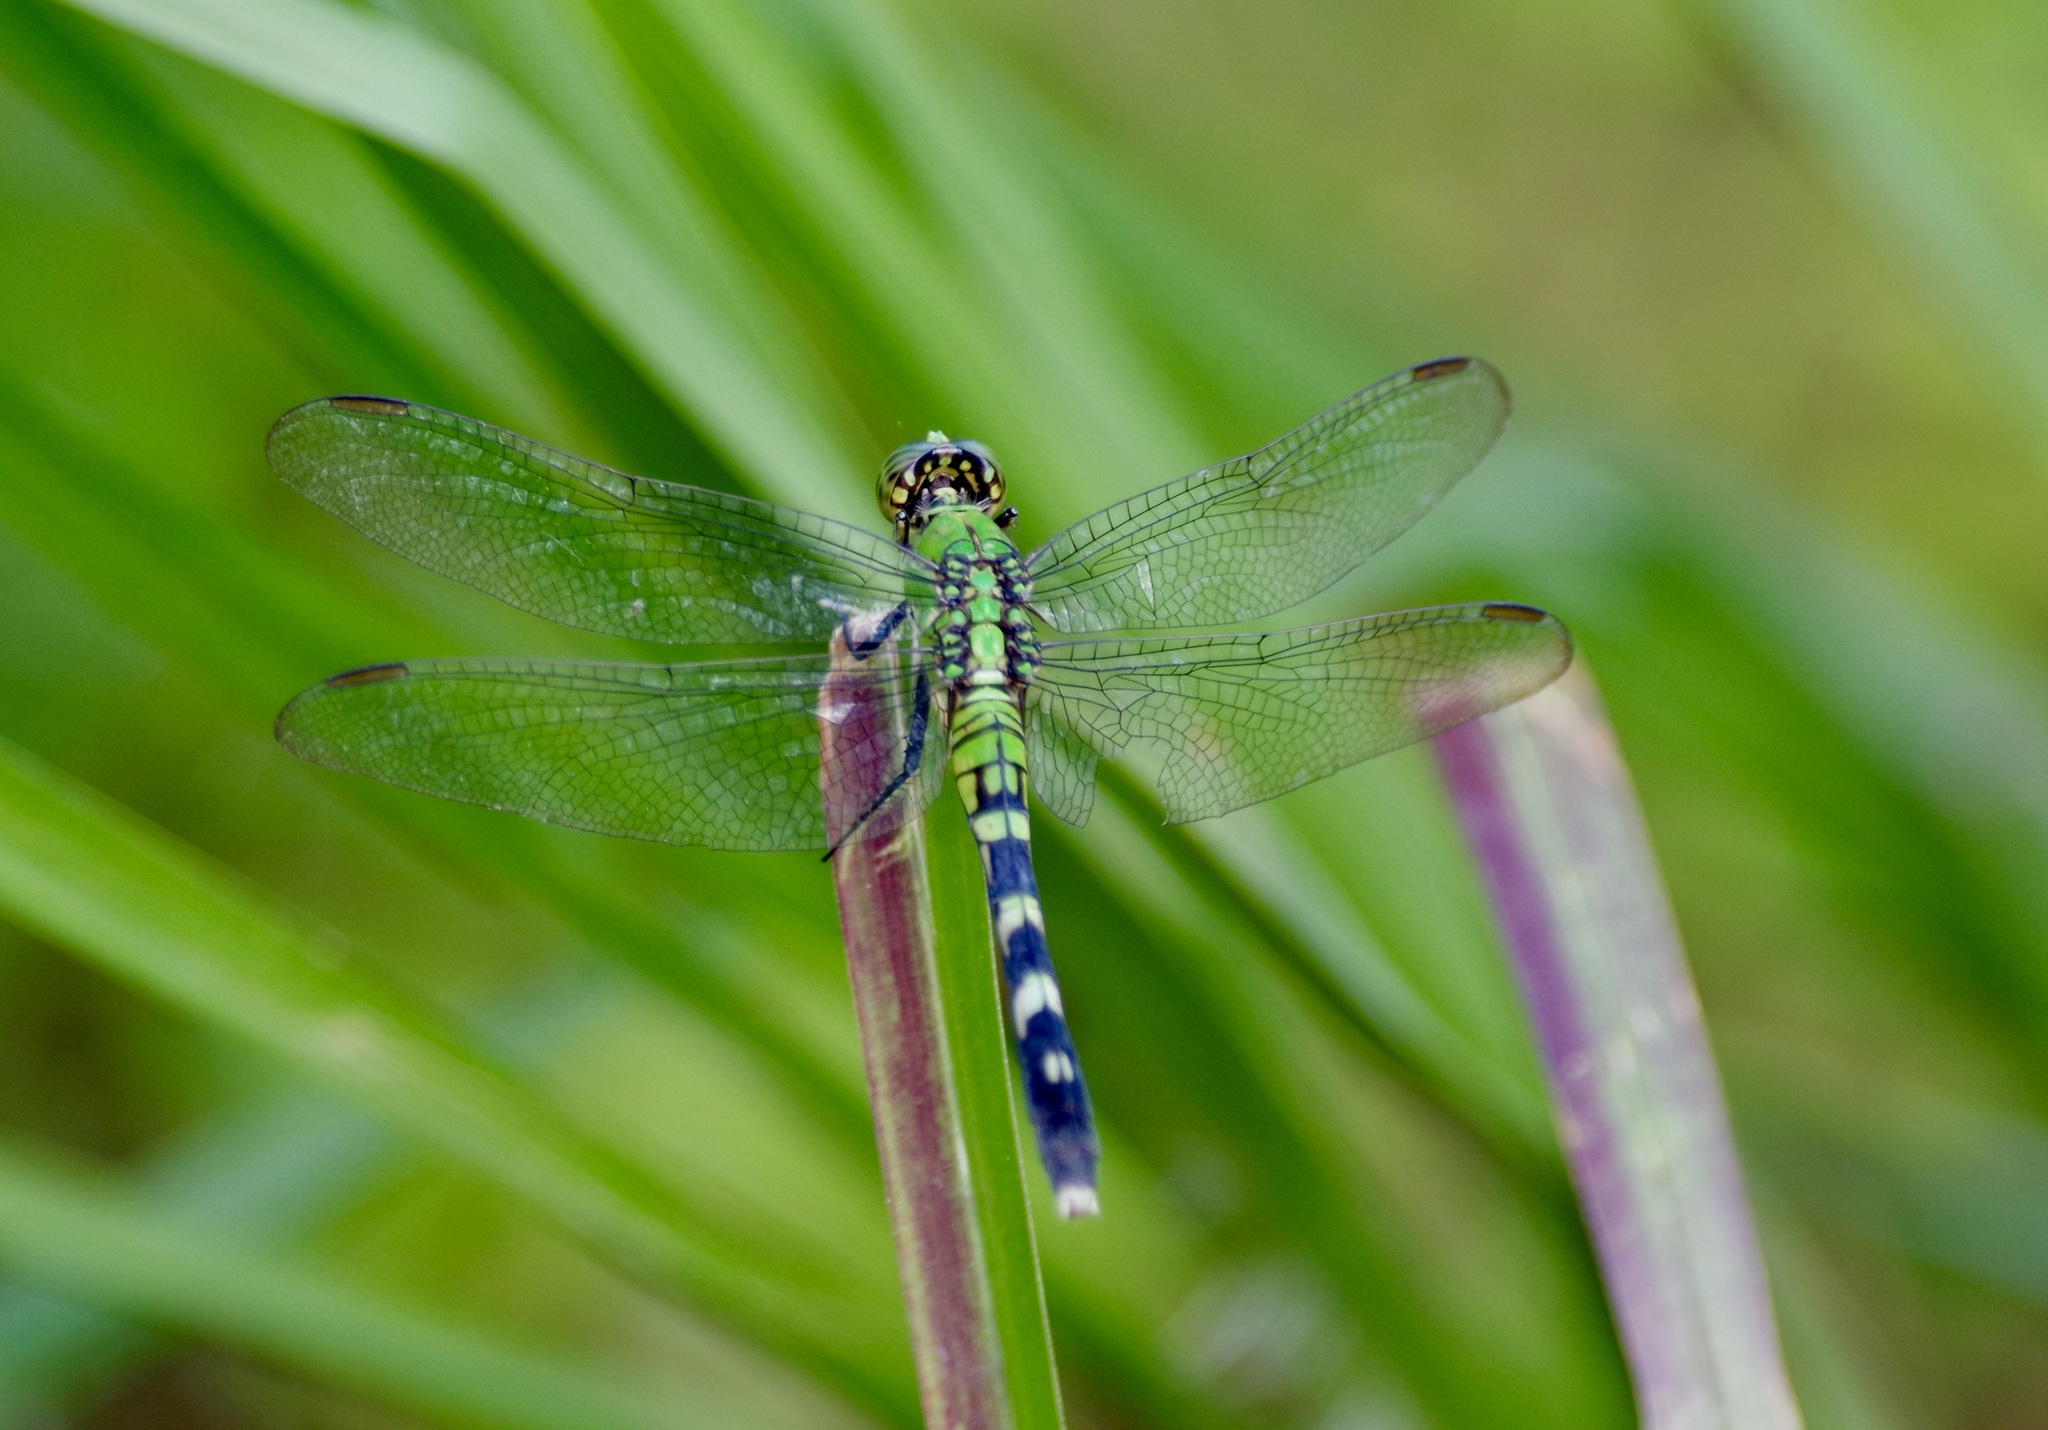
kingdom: Animalia
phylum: Arthropoda
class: Insecta
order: Odonata
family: Libellulidae
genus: Erythemis
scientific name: Erythemis simplicicollis
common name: Eastern pondhawk
